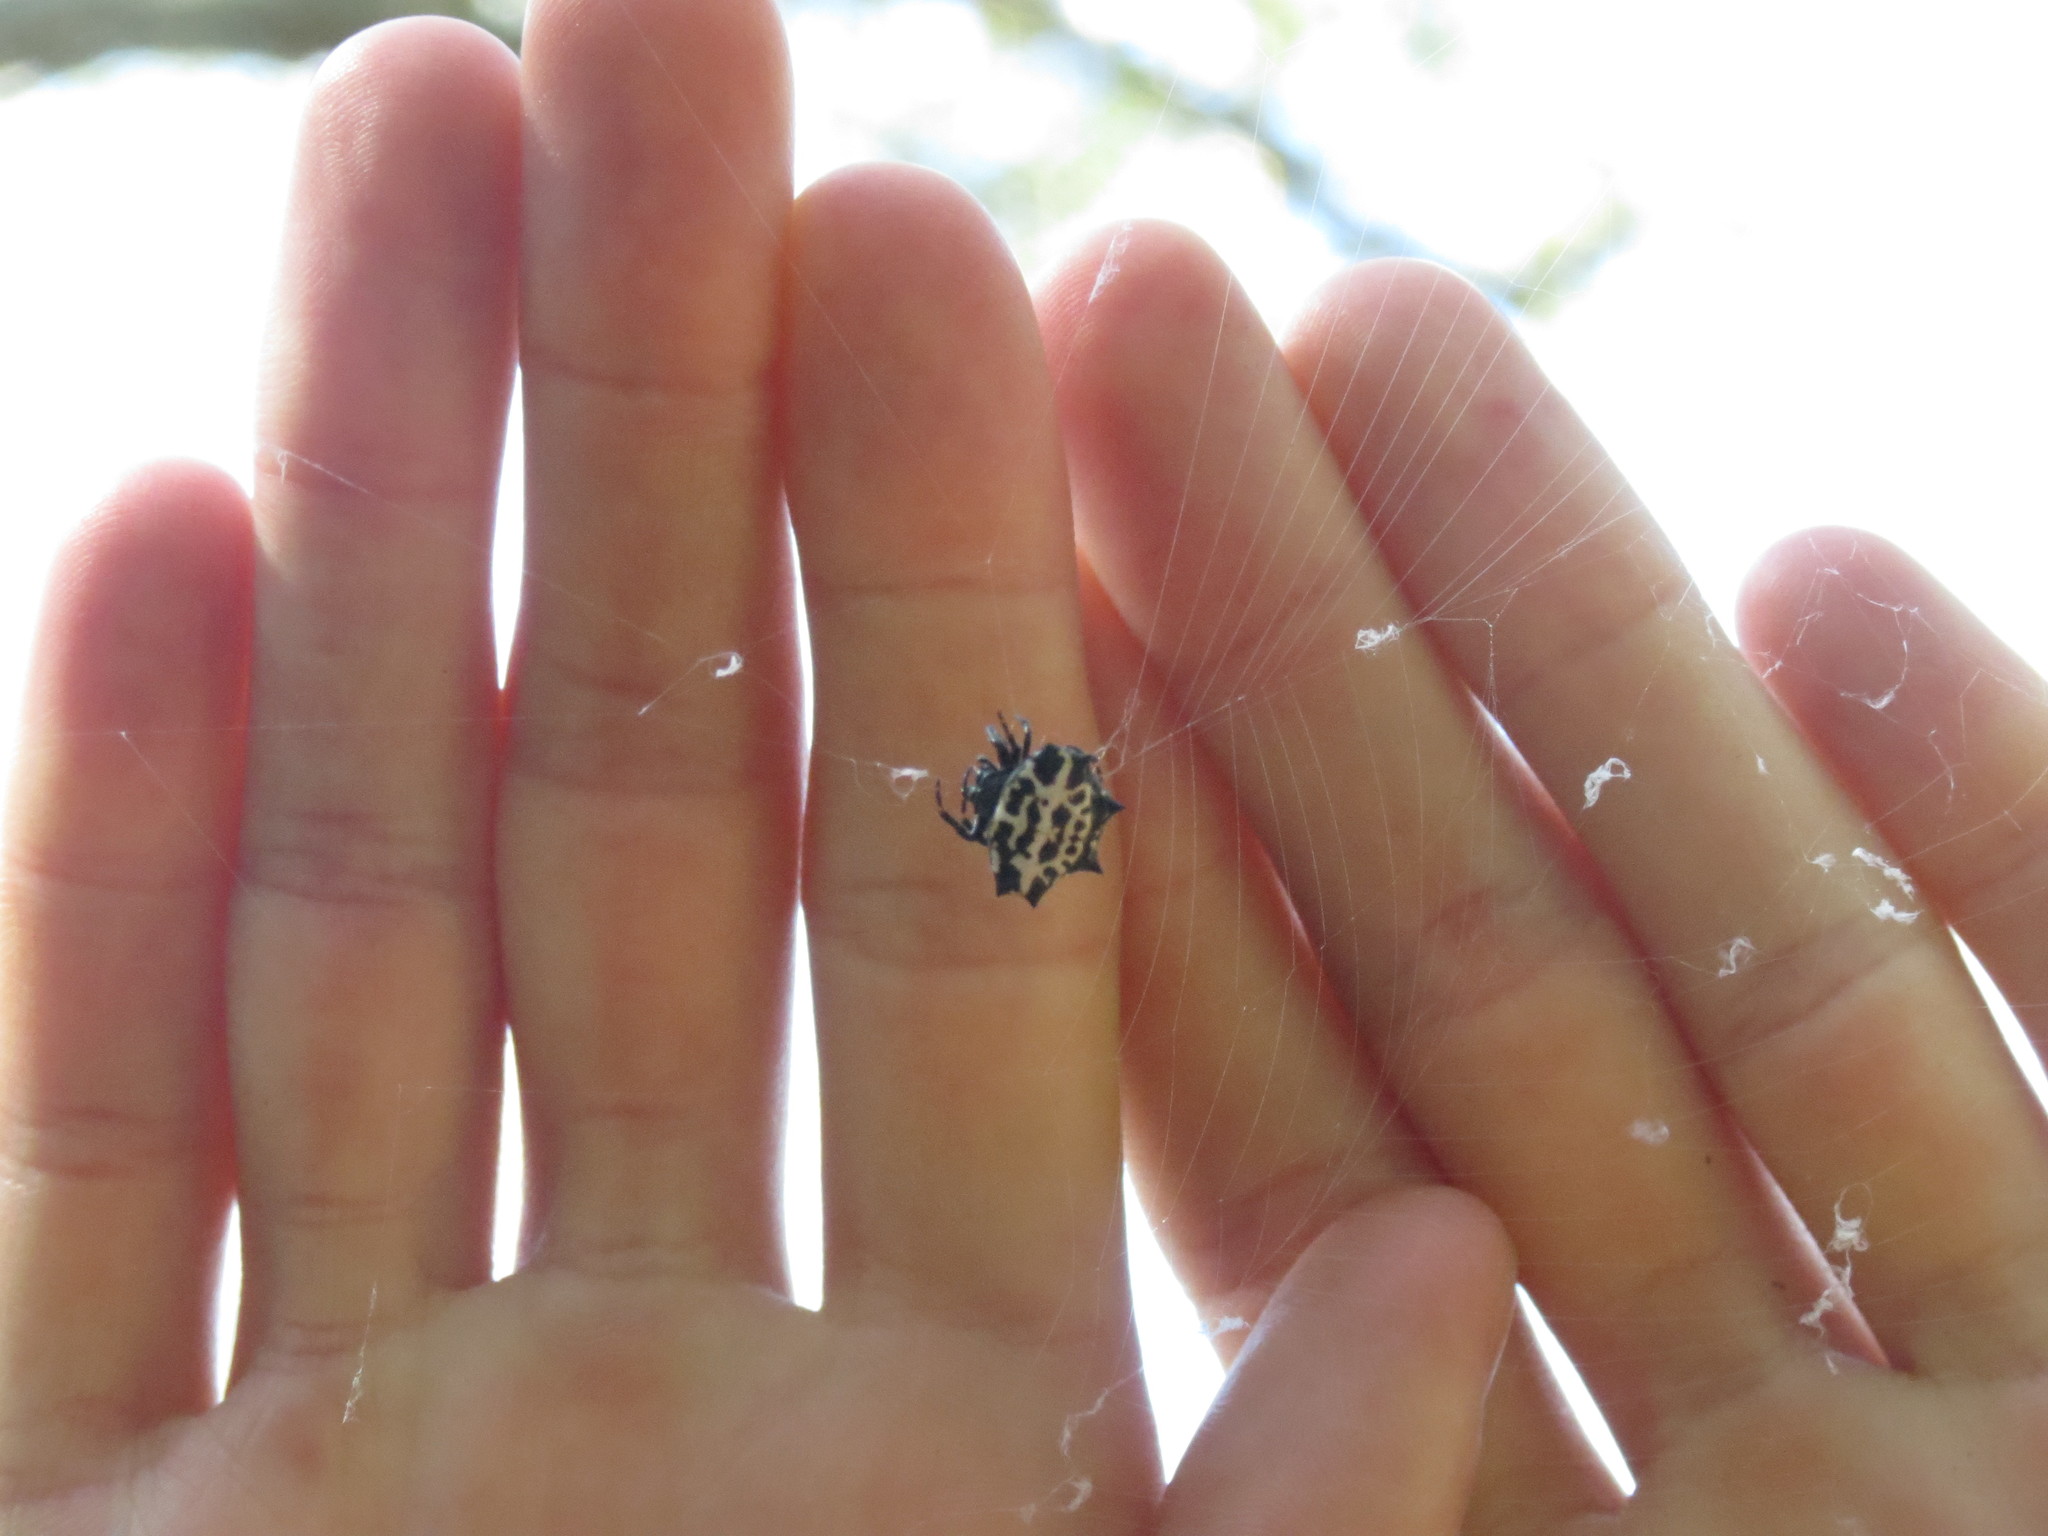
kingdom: Animalia
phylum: Arthropoda
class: Arachnida
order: Araneae
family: Araneidae
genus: Gasteracantha
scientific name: Gasteracantha cancriformis
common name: Orb weavers
